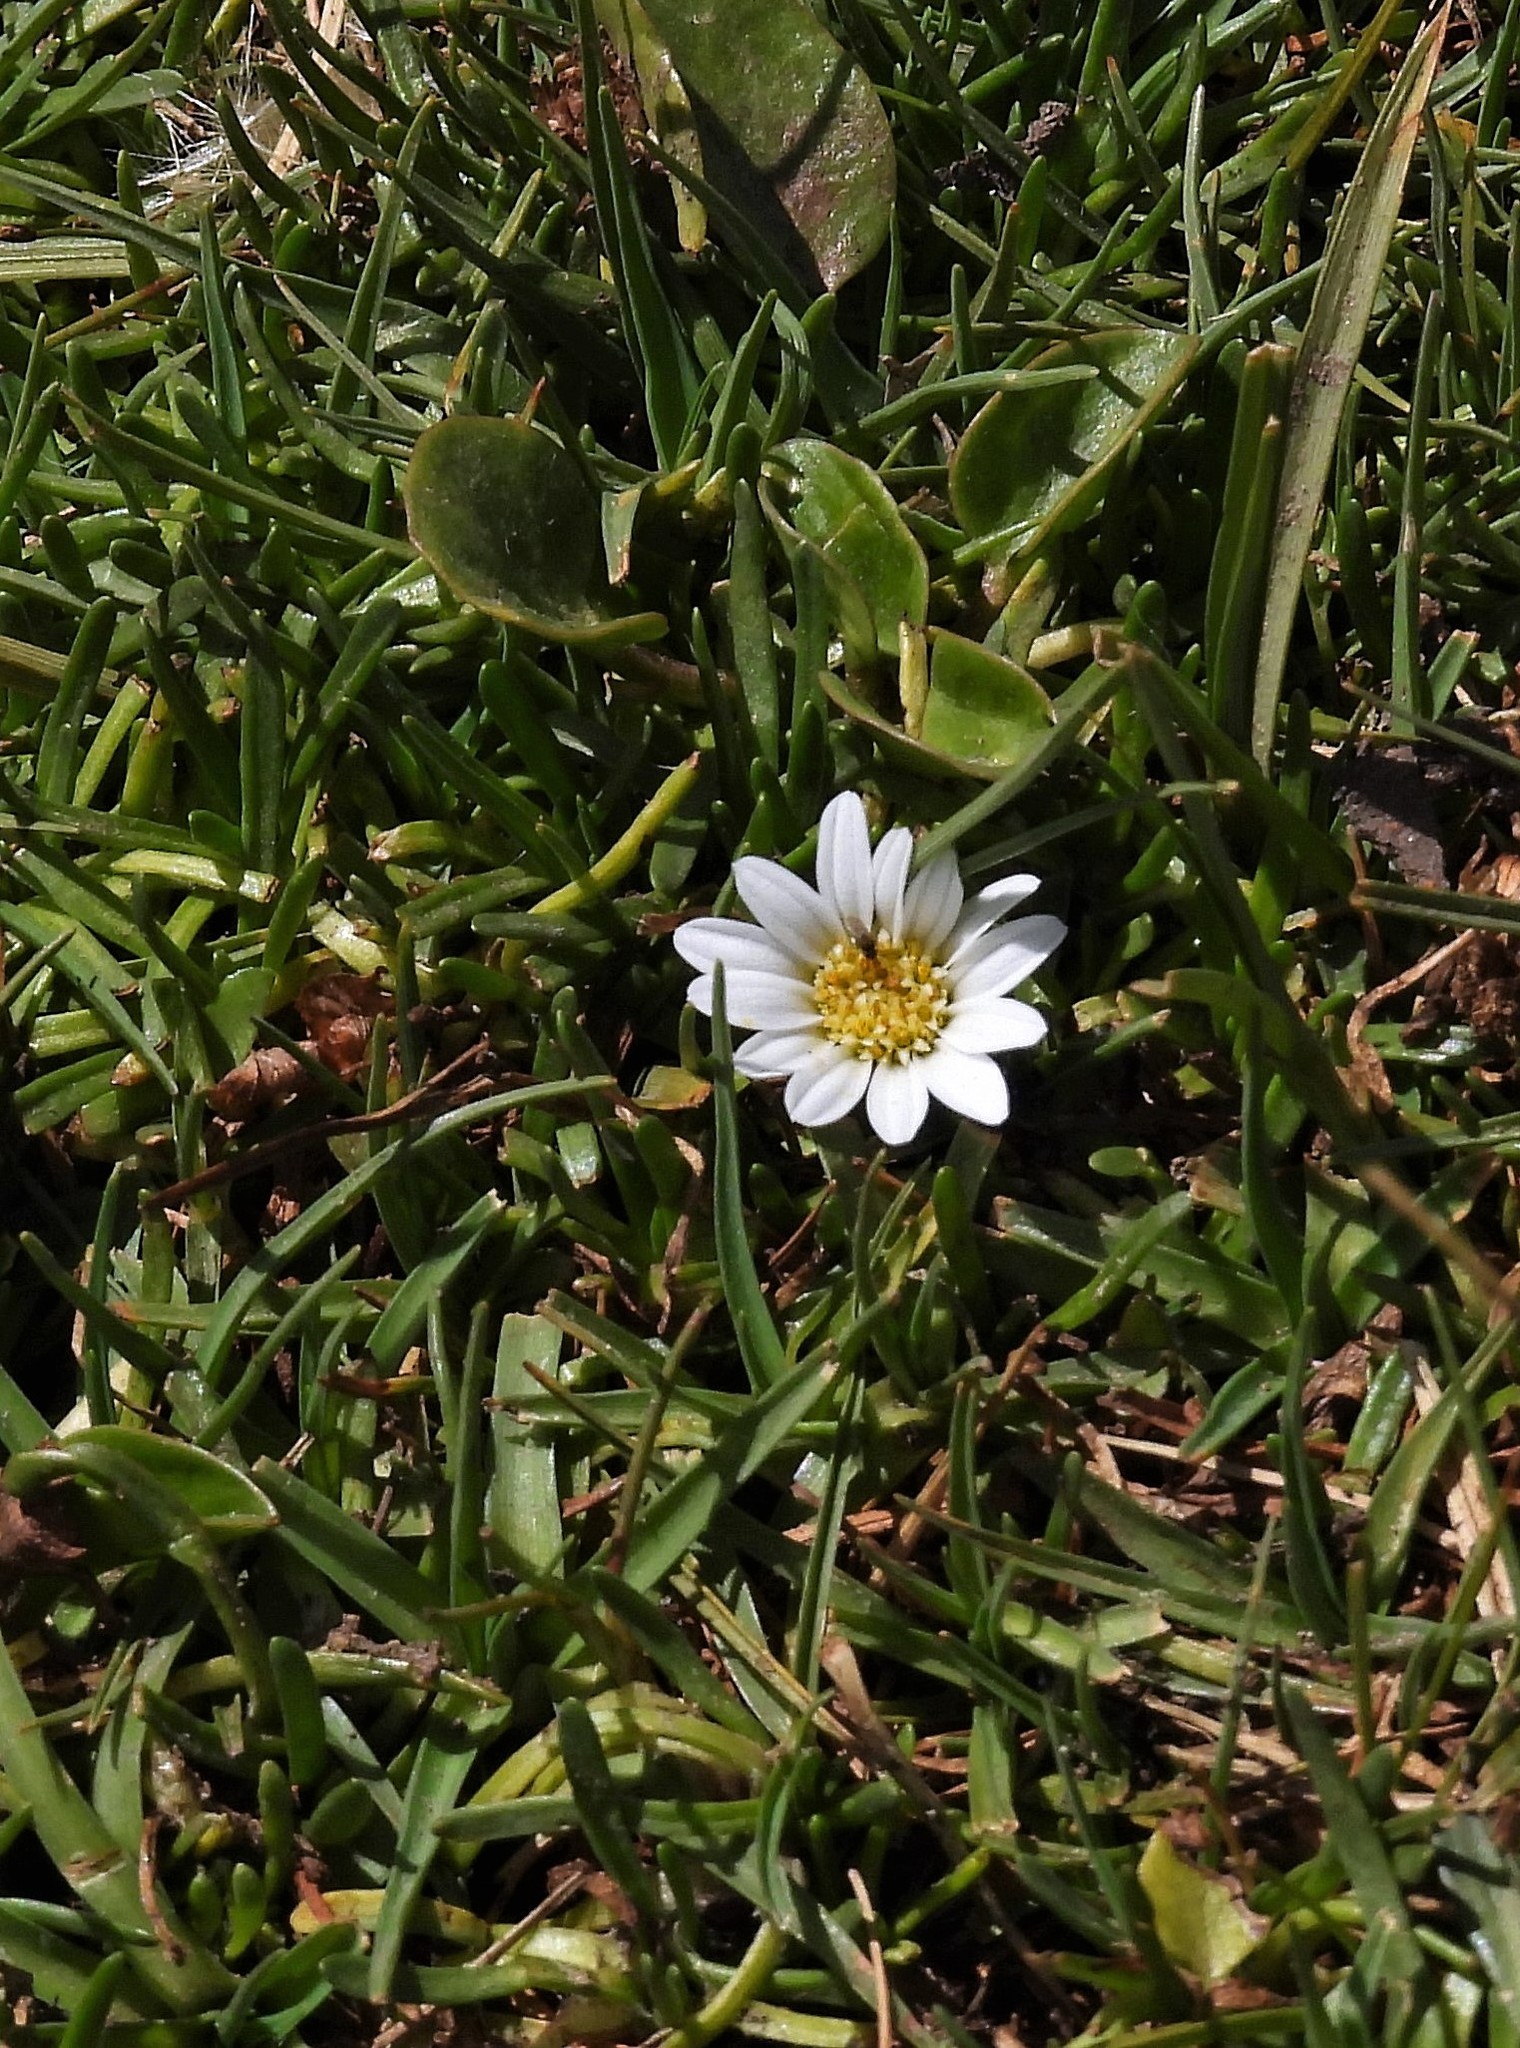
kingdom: Plantae
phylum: Tracheophyta
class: Magnoliopsida
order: Asterales
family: Asteraceae
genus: Rockhausenia
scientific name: Rockhausenia pygmaea
